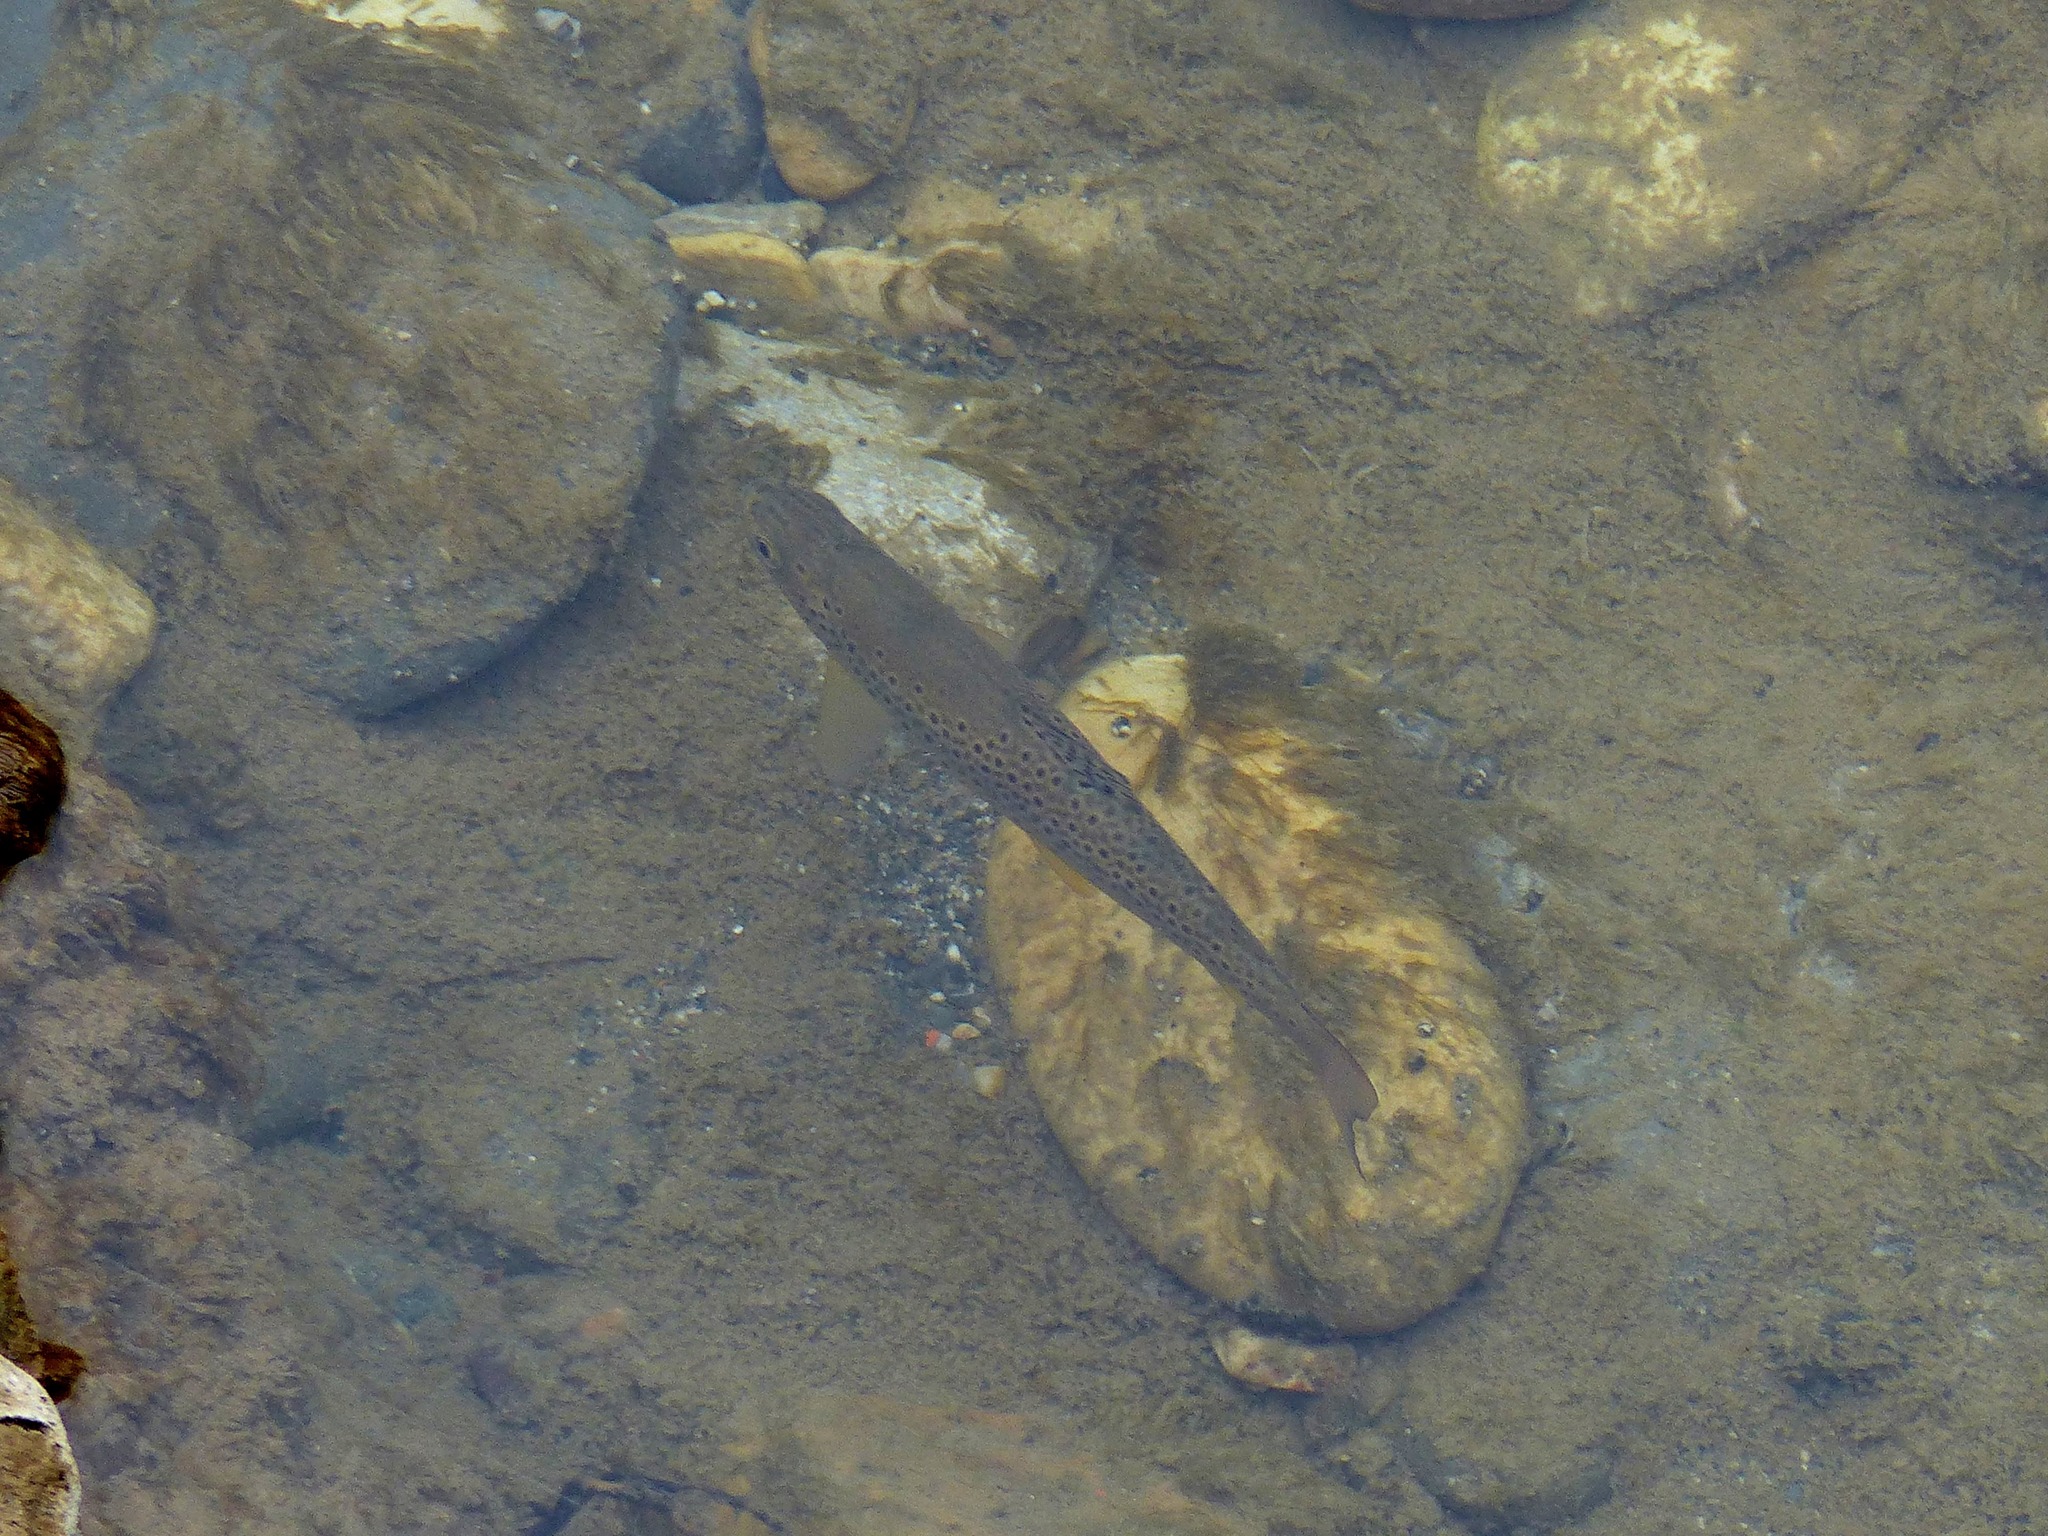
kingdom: Animalia
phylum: Chordata
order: Salmoniformes
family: Salmonidae
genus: Salmo
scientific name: Salmo trutta
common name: Brown trout
